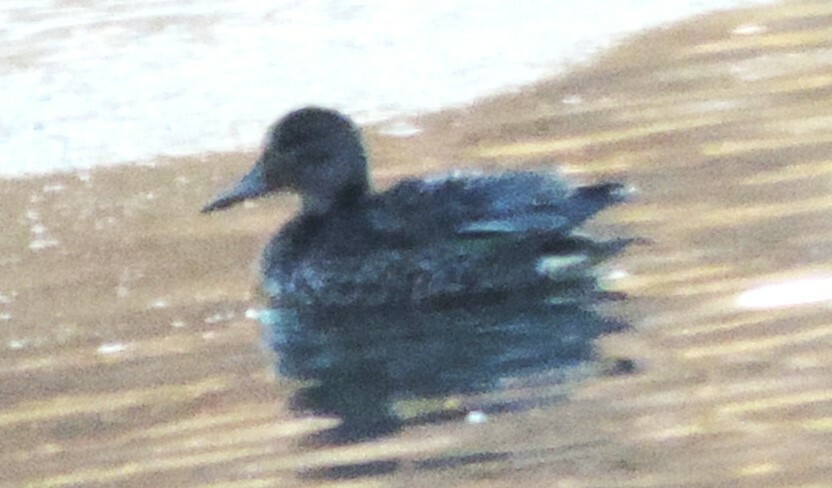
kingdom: Animalia
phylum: Chordata
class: Aves
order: Anseriformes
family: Anatidae
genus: Anas
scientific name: Anas crecca
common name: Eurasian teal
